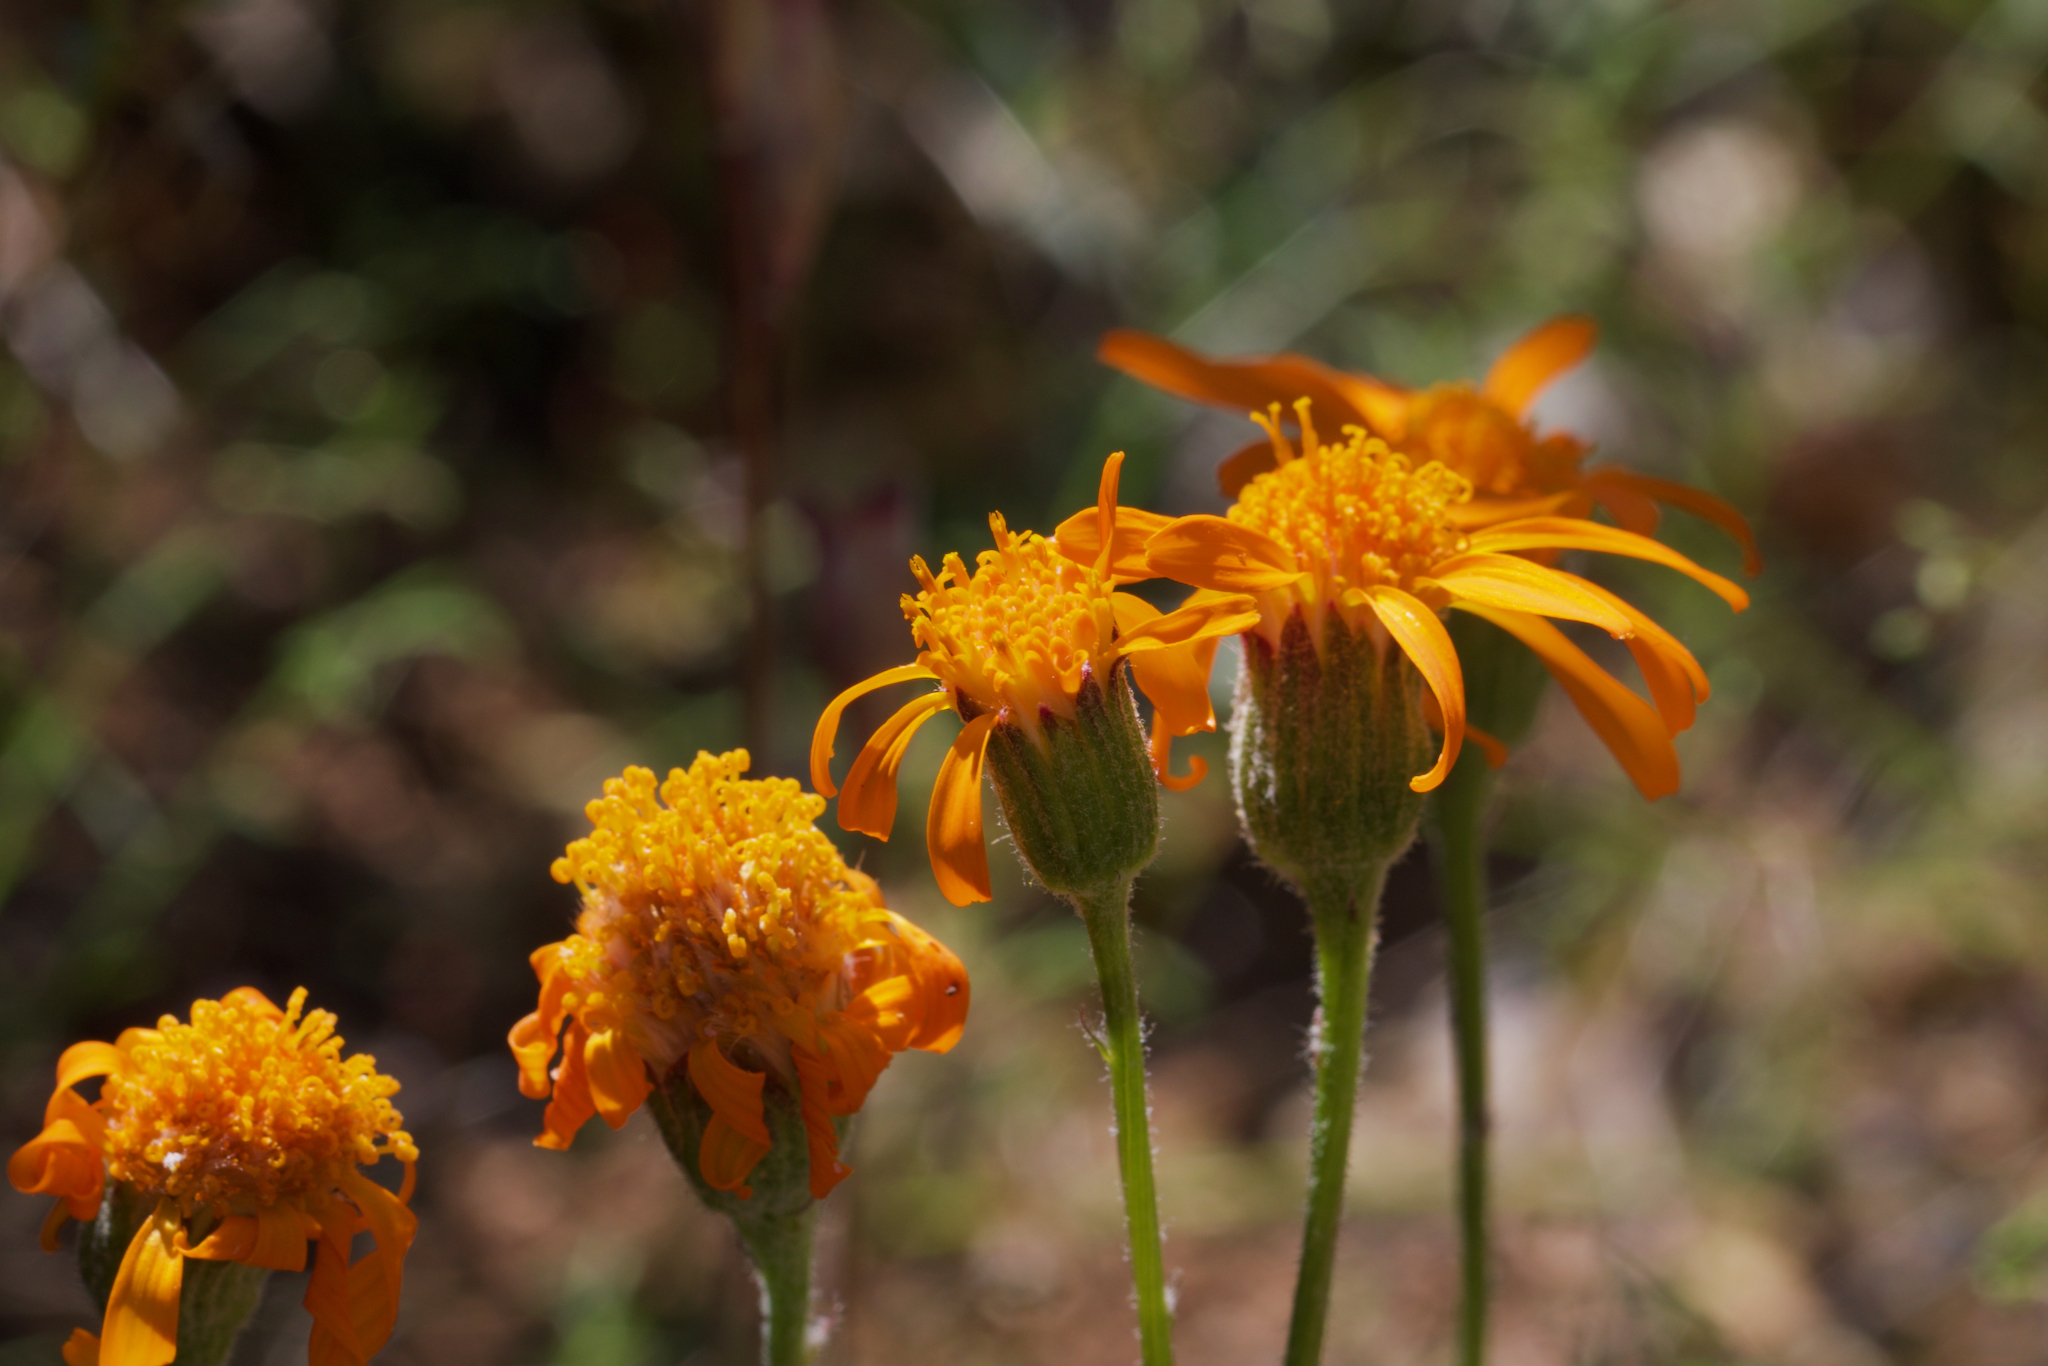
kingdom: Plantae
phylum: Tracheophyta
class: Magnoliopsida
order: Asterales
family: Asteraceae
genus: Packera
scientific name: Packera greenei
